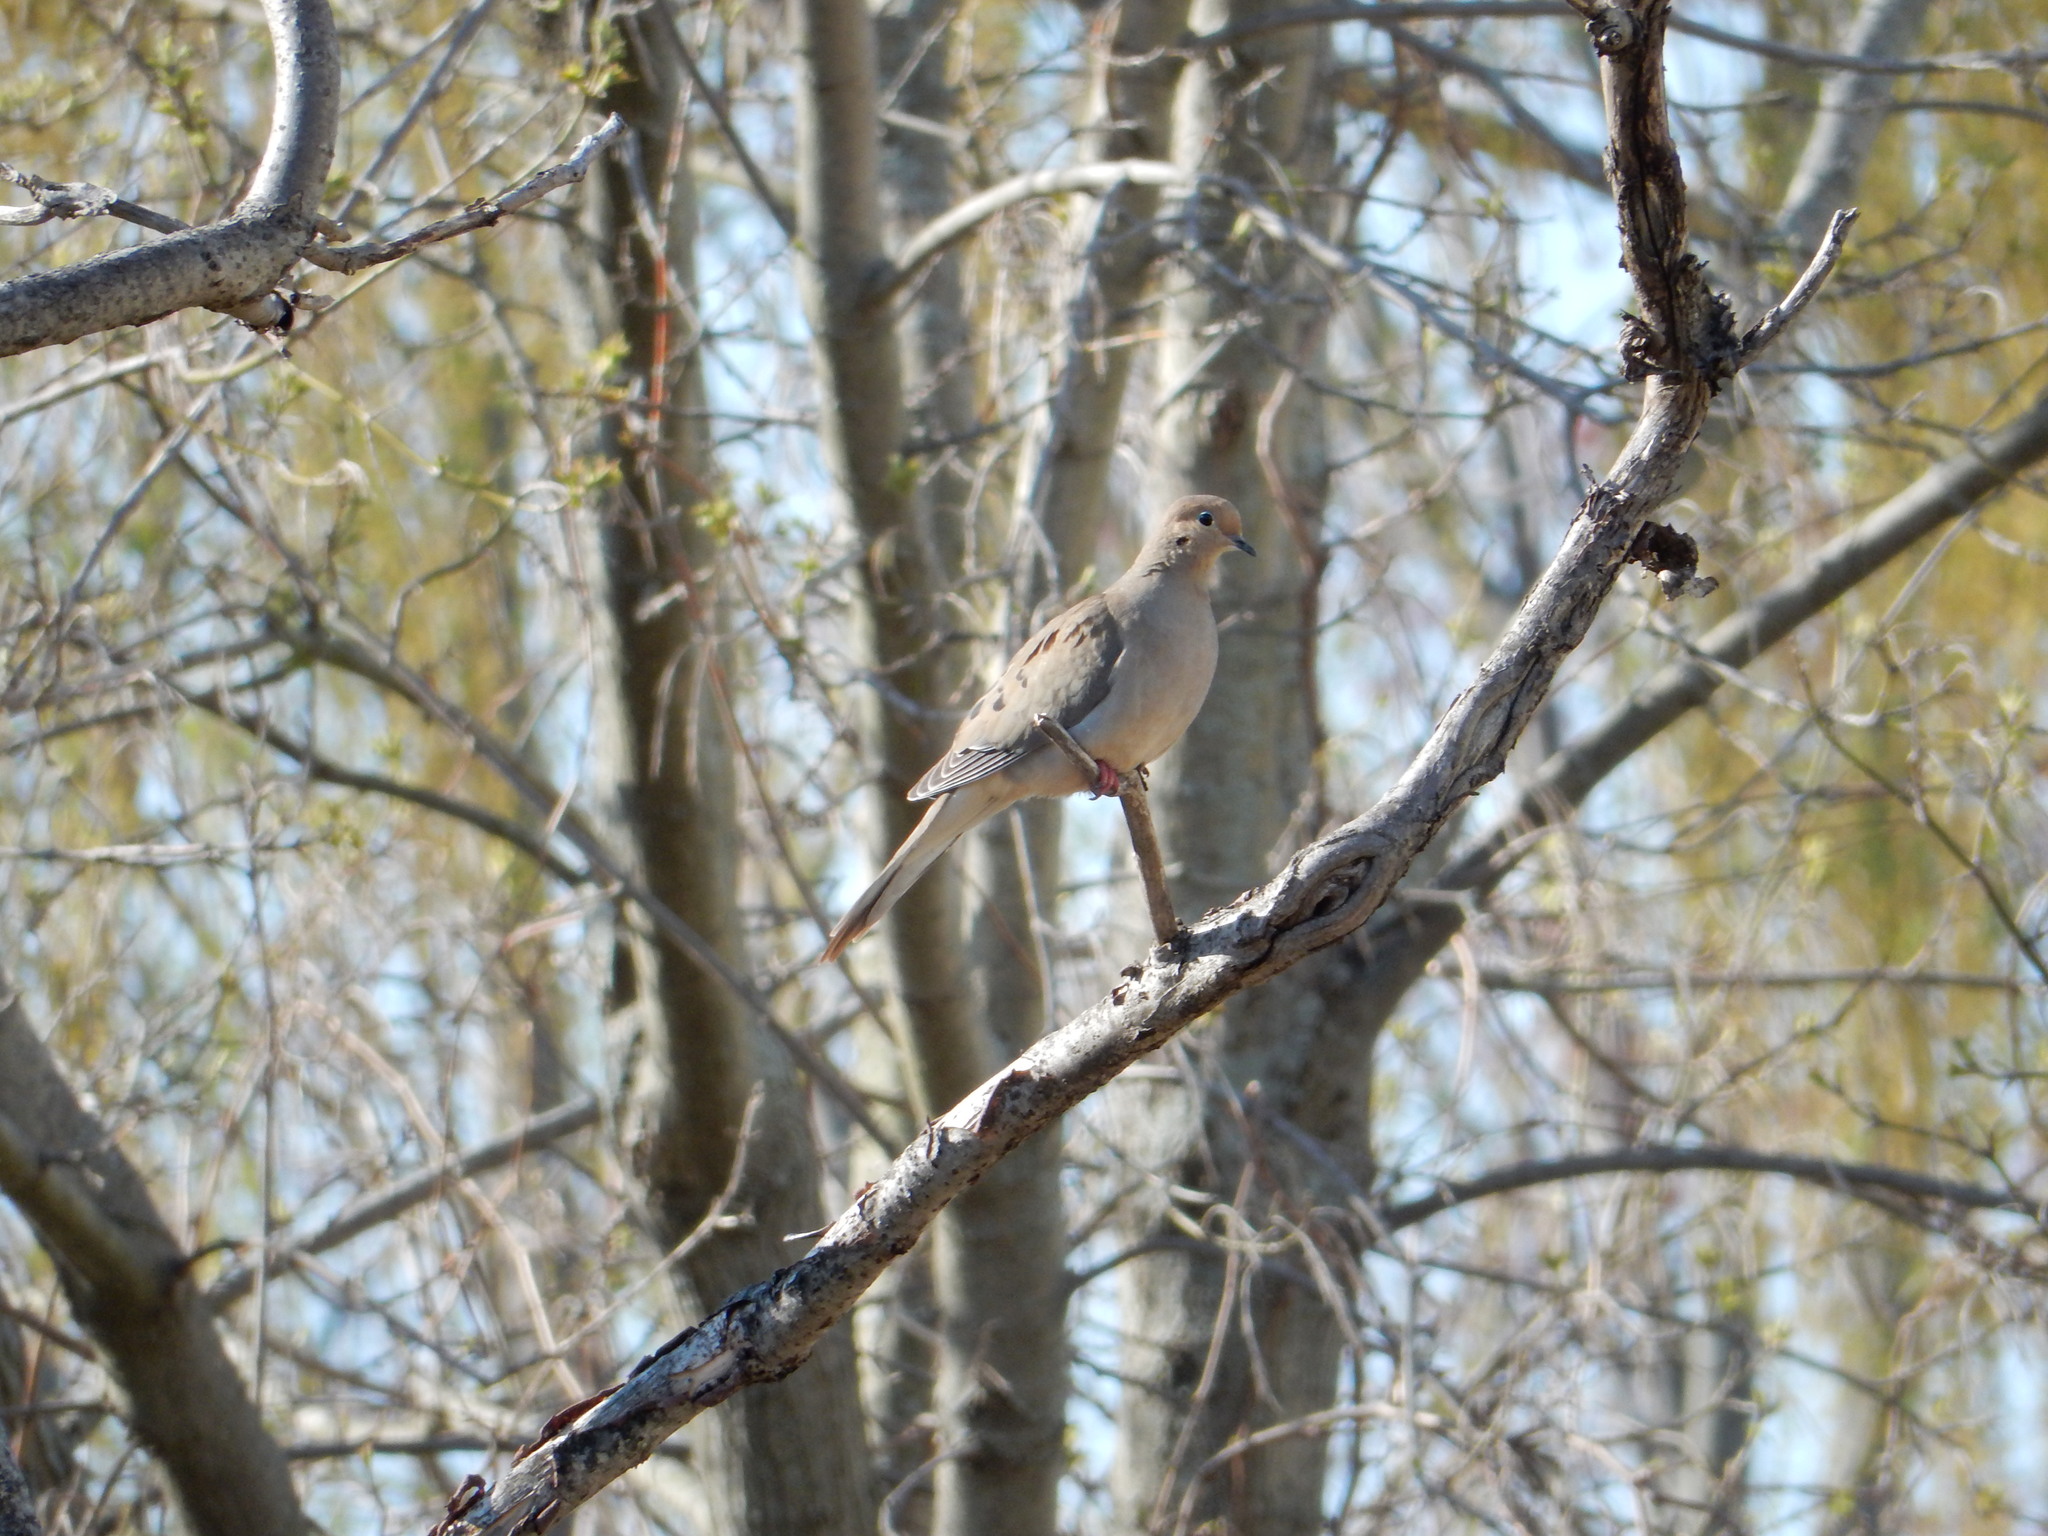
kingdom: Animalia
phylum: Chordata
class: Aves
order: Columbiformes
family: Columbidae
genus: Zenaida
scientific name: Zenaida macroura
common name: Mourning dove
